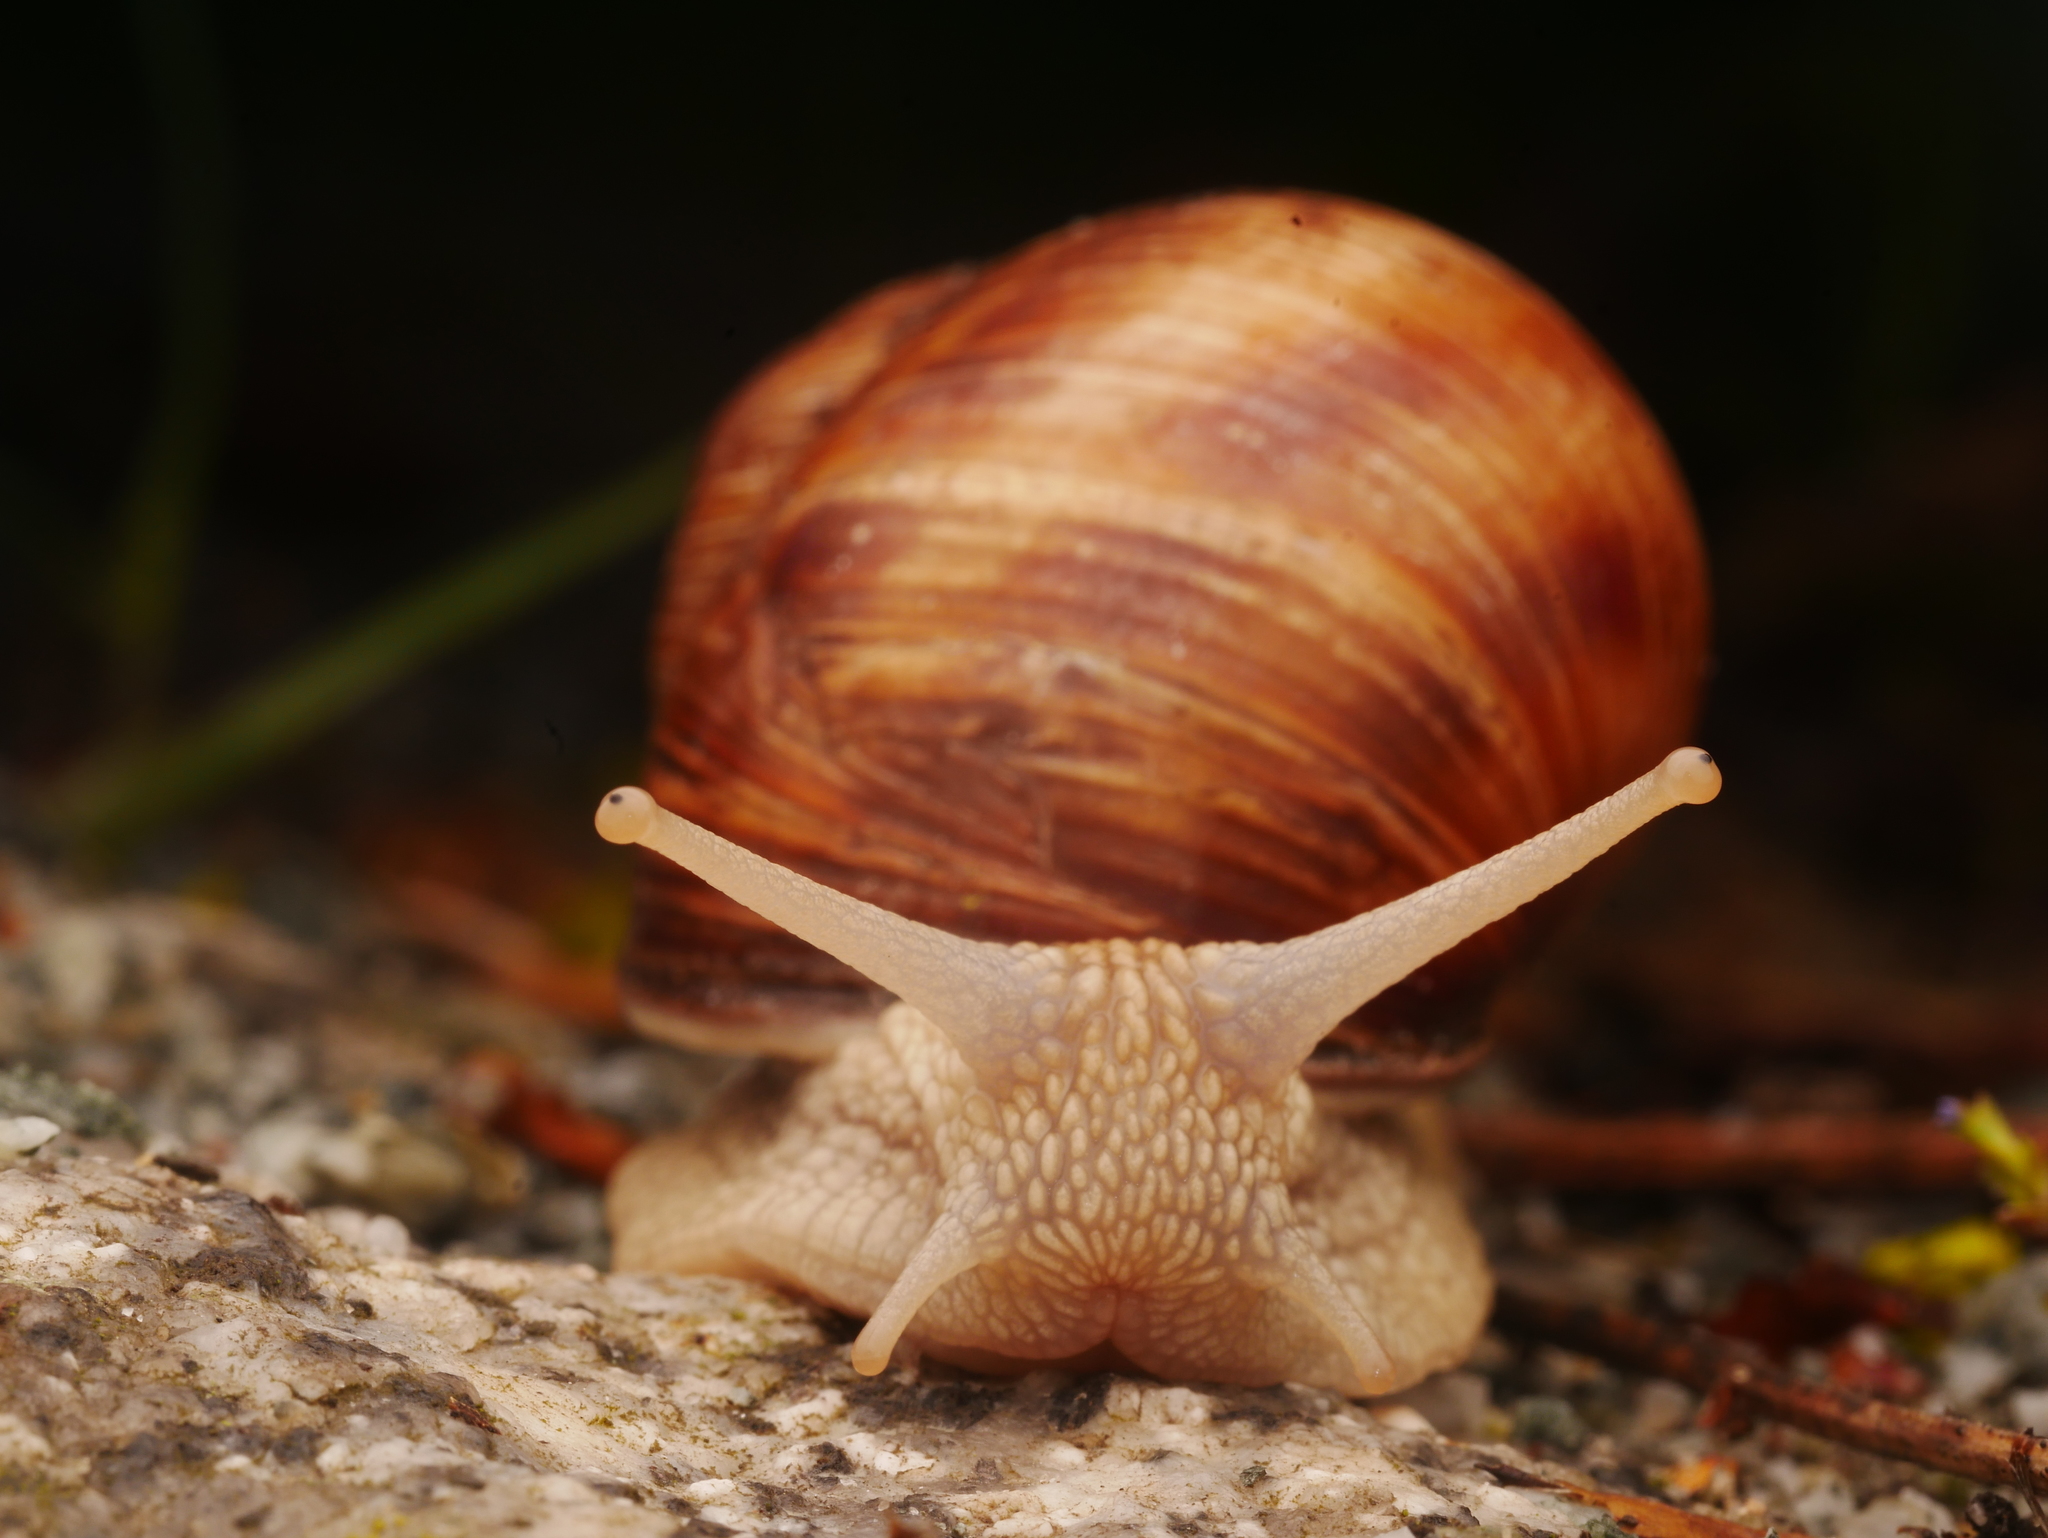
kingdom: Animalia
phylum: Mollusca
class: Gastropoda
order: Stylommatophora
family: Helicidae
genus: Helix
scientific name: Helix pomatia
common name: Roman snail
